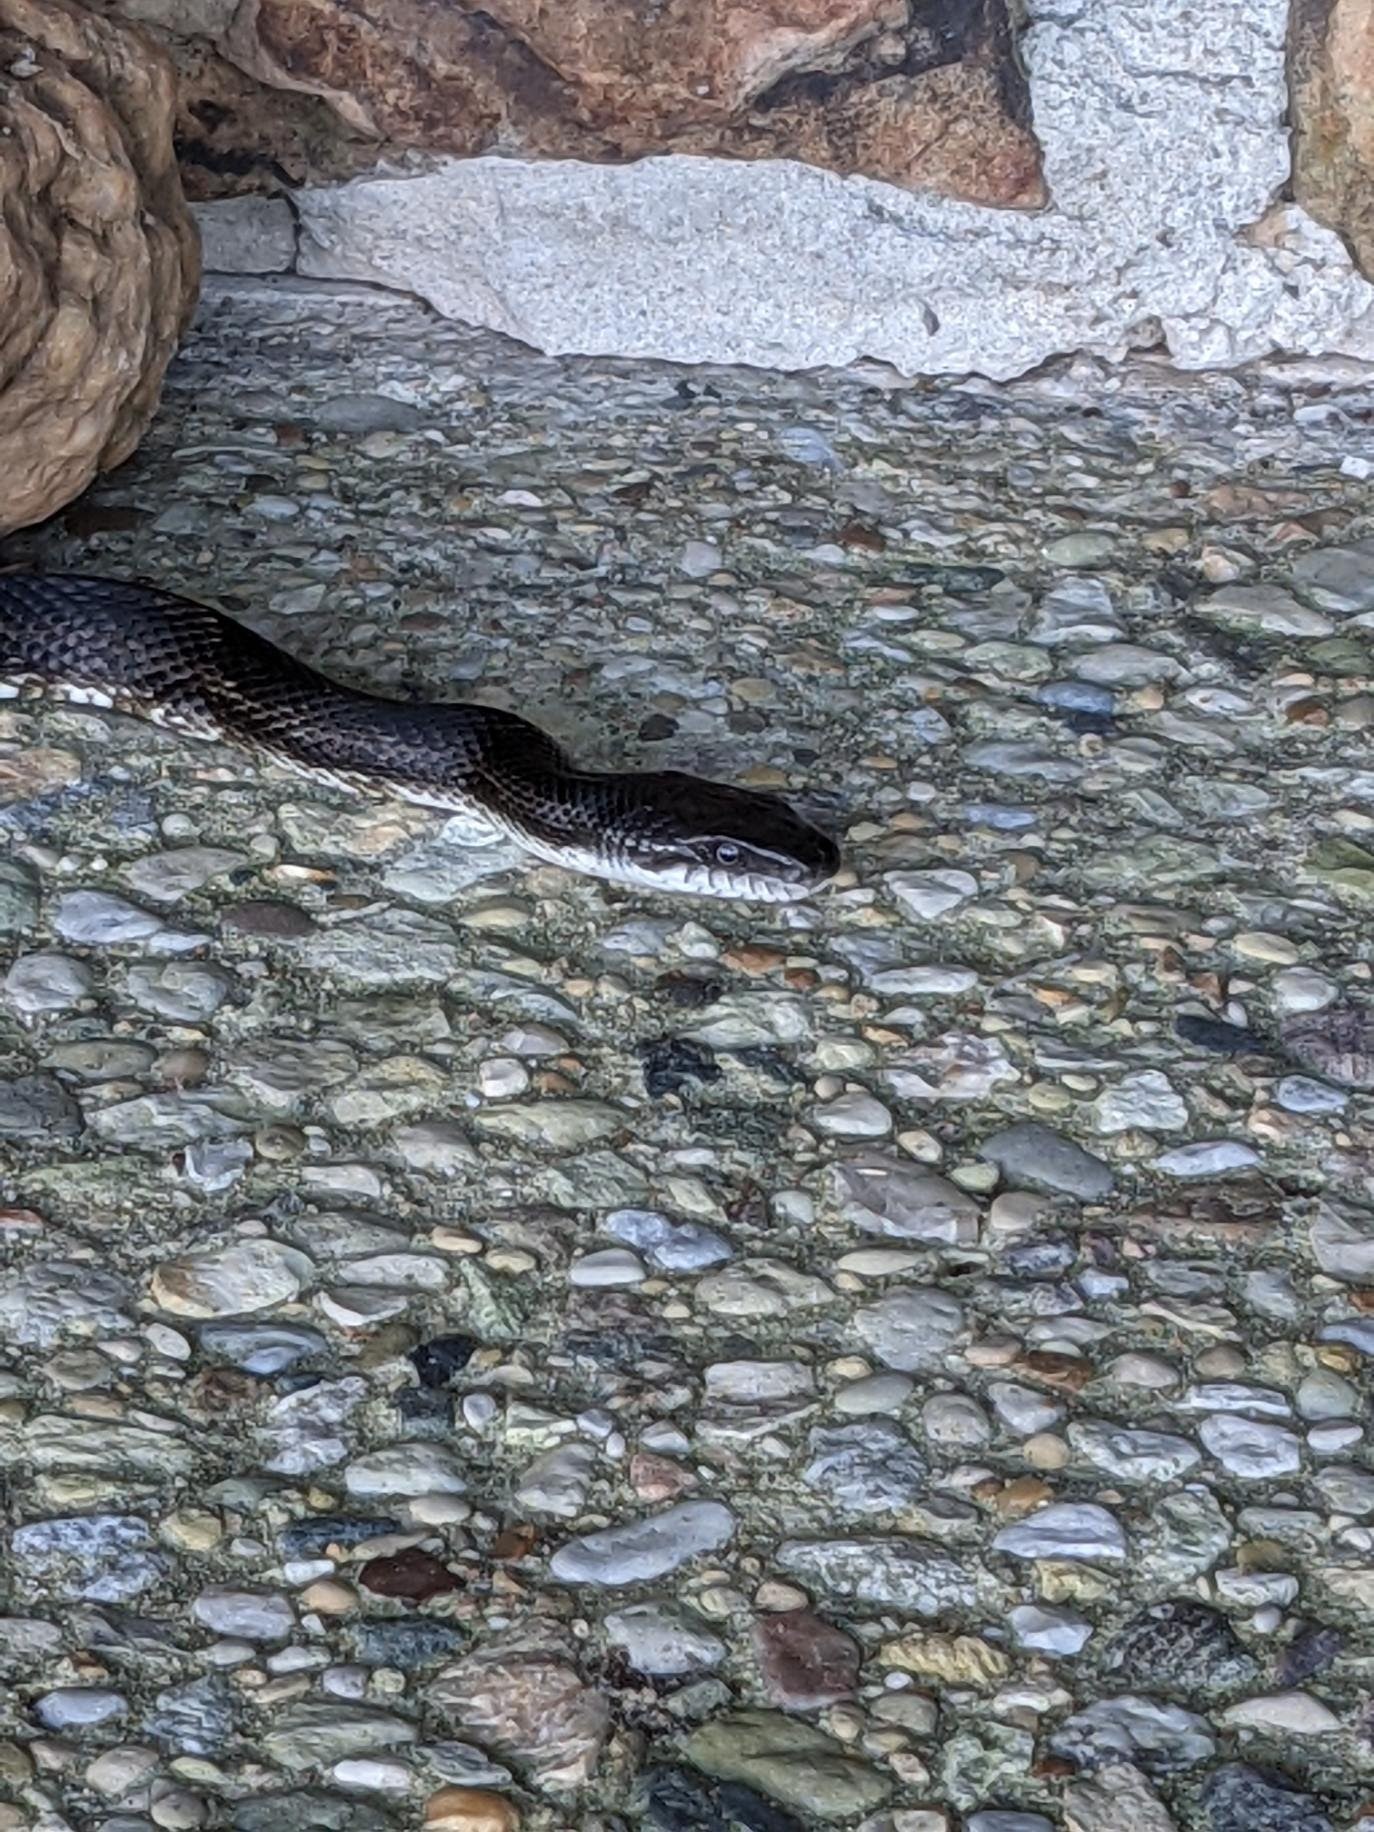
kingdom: Animalia
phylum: Chordata
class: Squamata
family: Colubridae
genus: Pantherophis
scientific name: Pantherophis spiloides
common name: Gray rat snake
